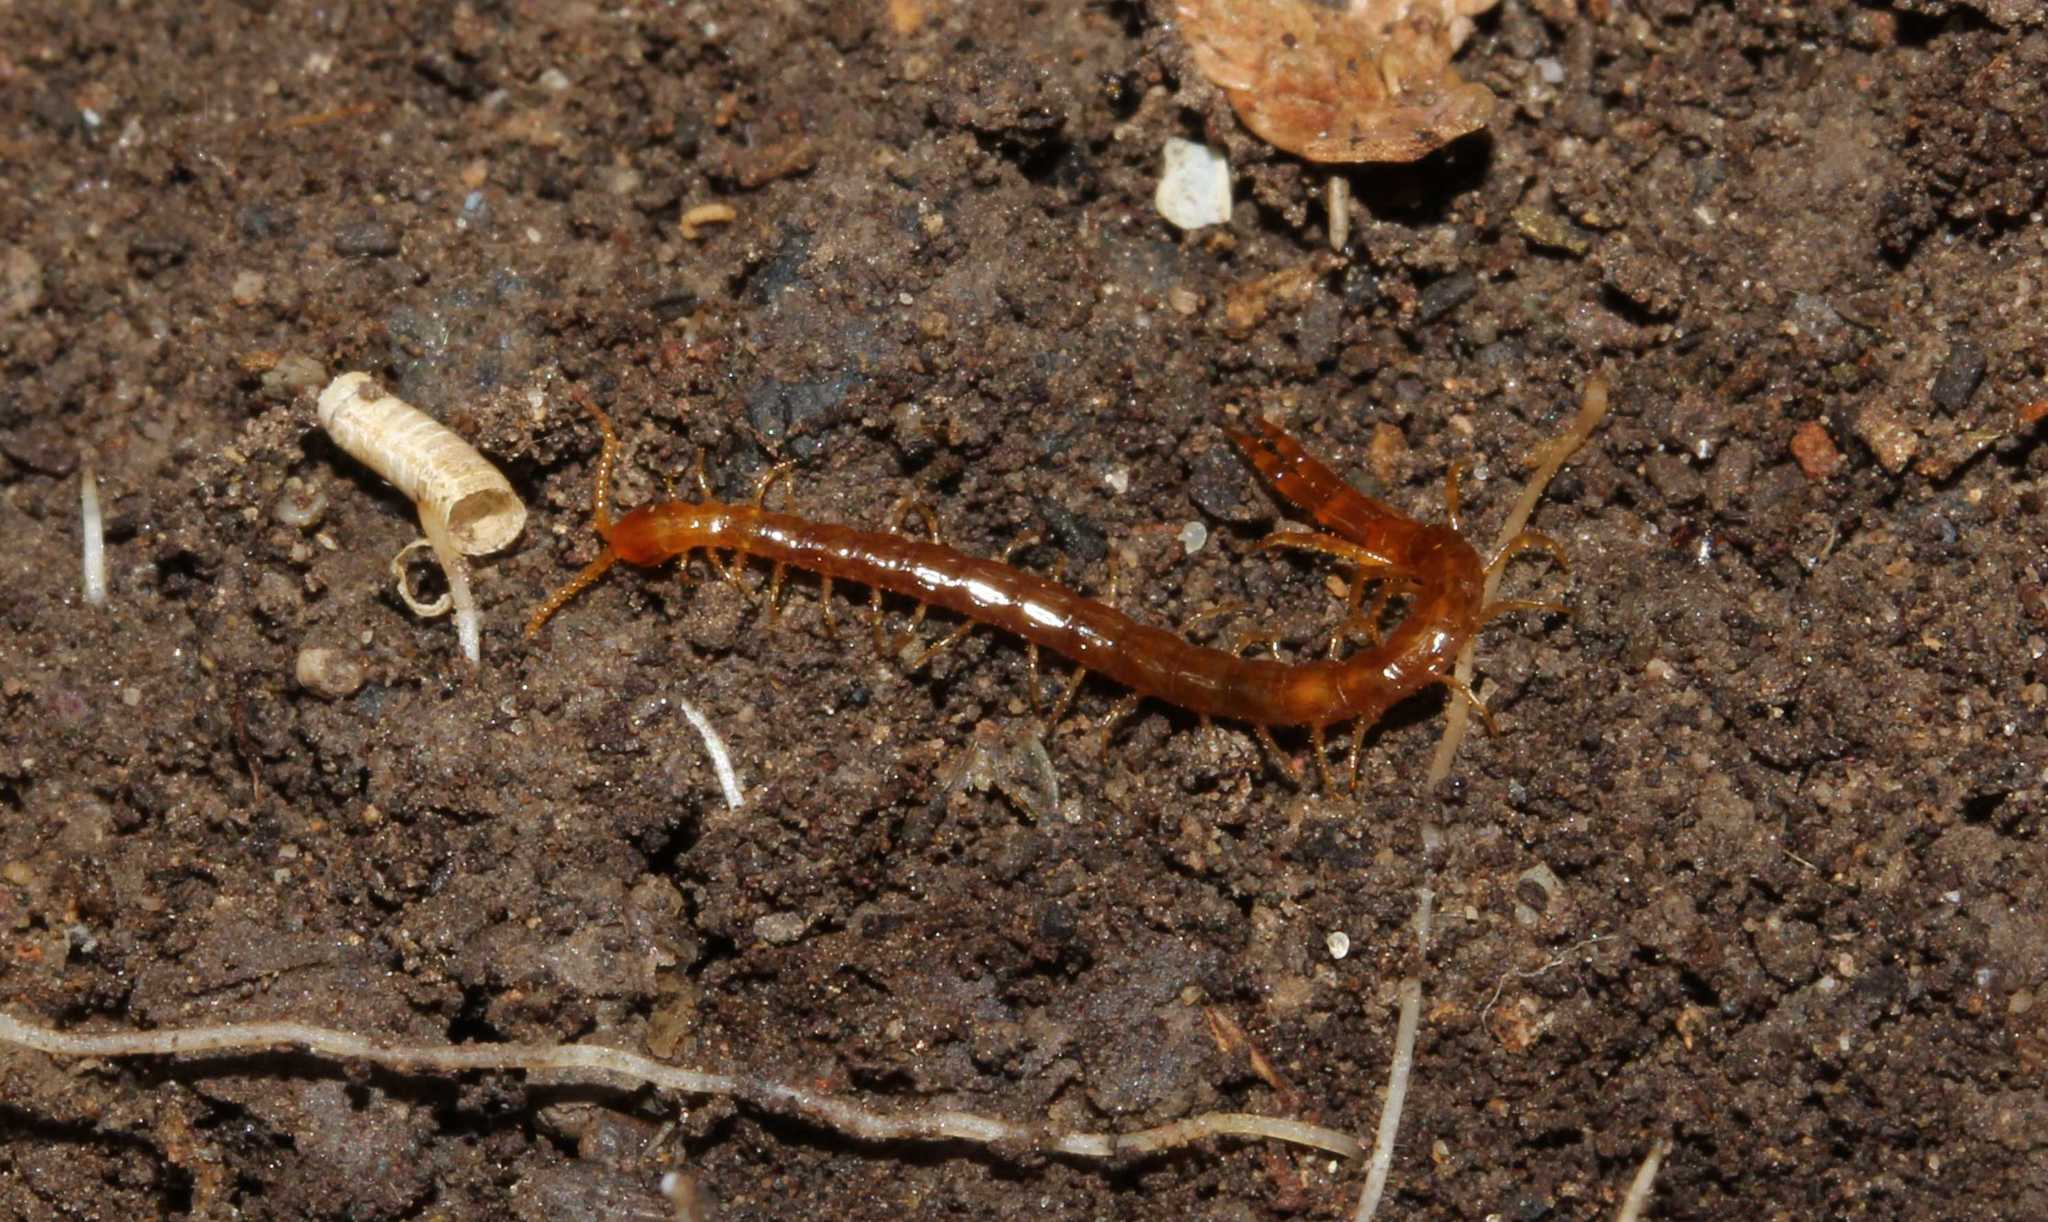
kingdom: Animalia
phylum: Arthropoda
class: Chilopoda
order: Scolopendromorpha
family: Cryptopidae
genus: Cryptops
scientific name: Cryptops
